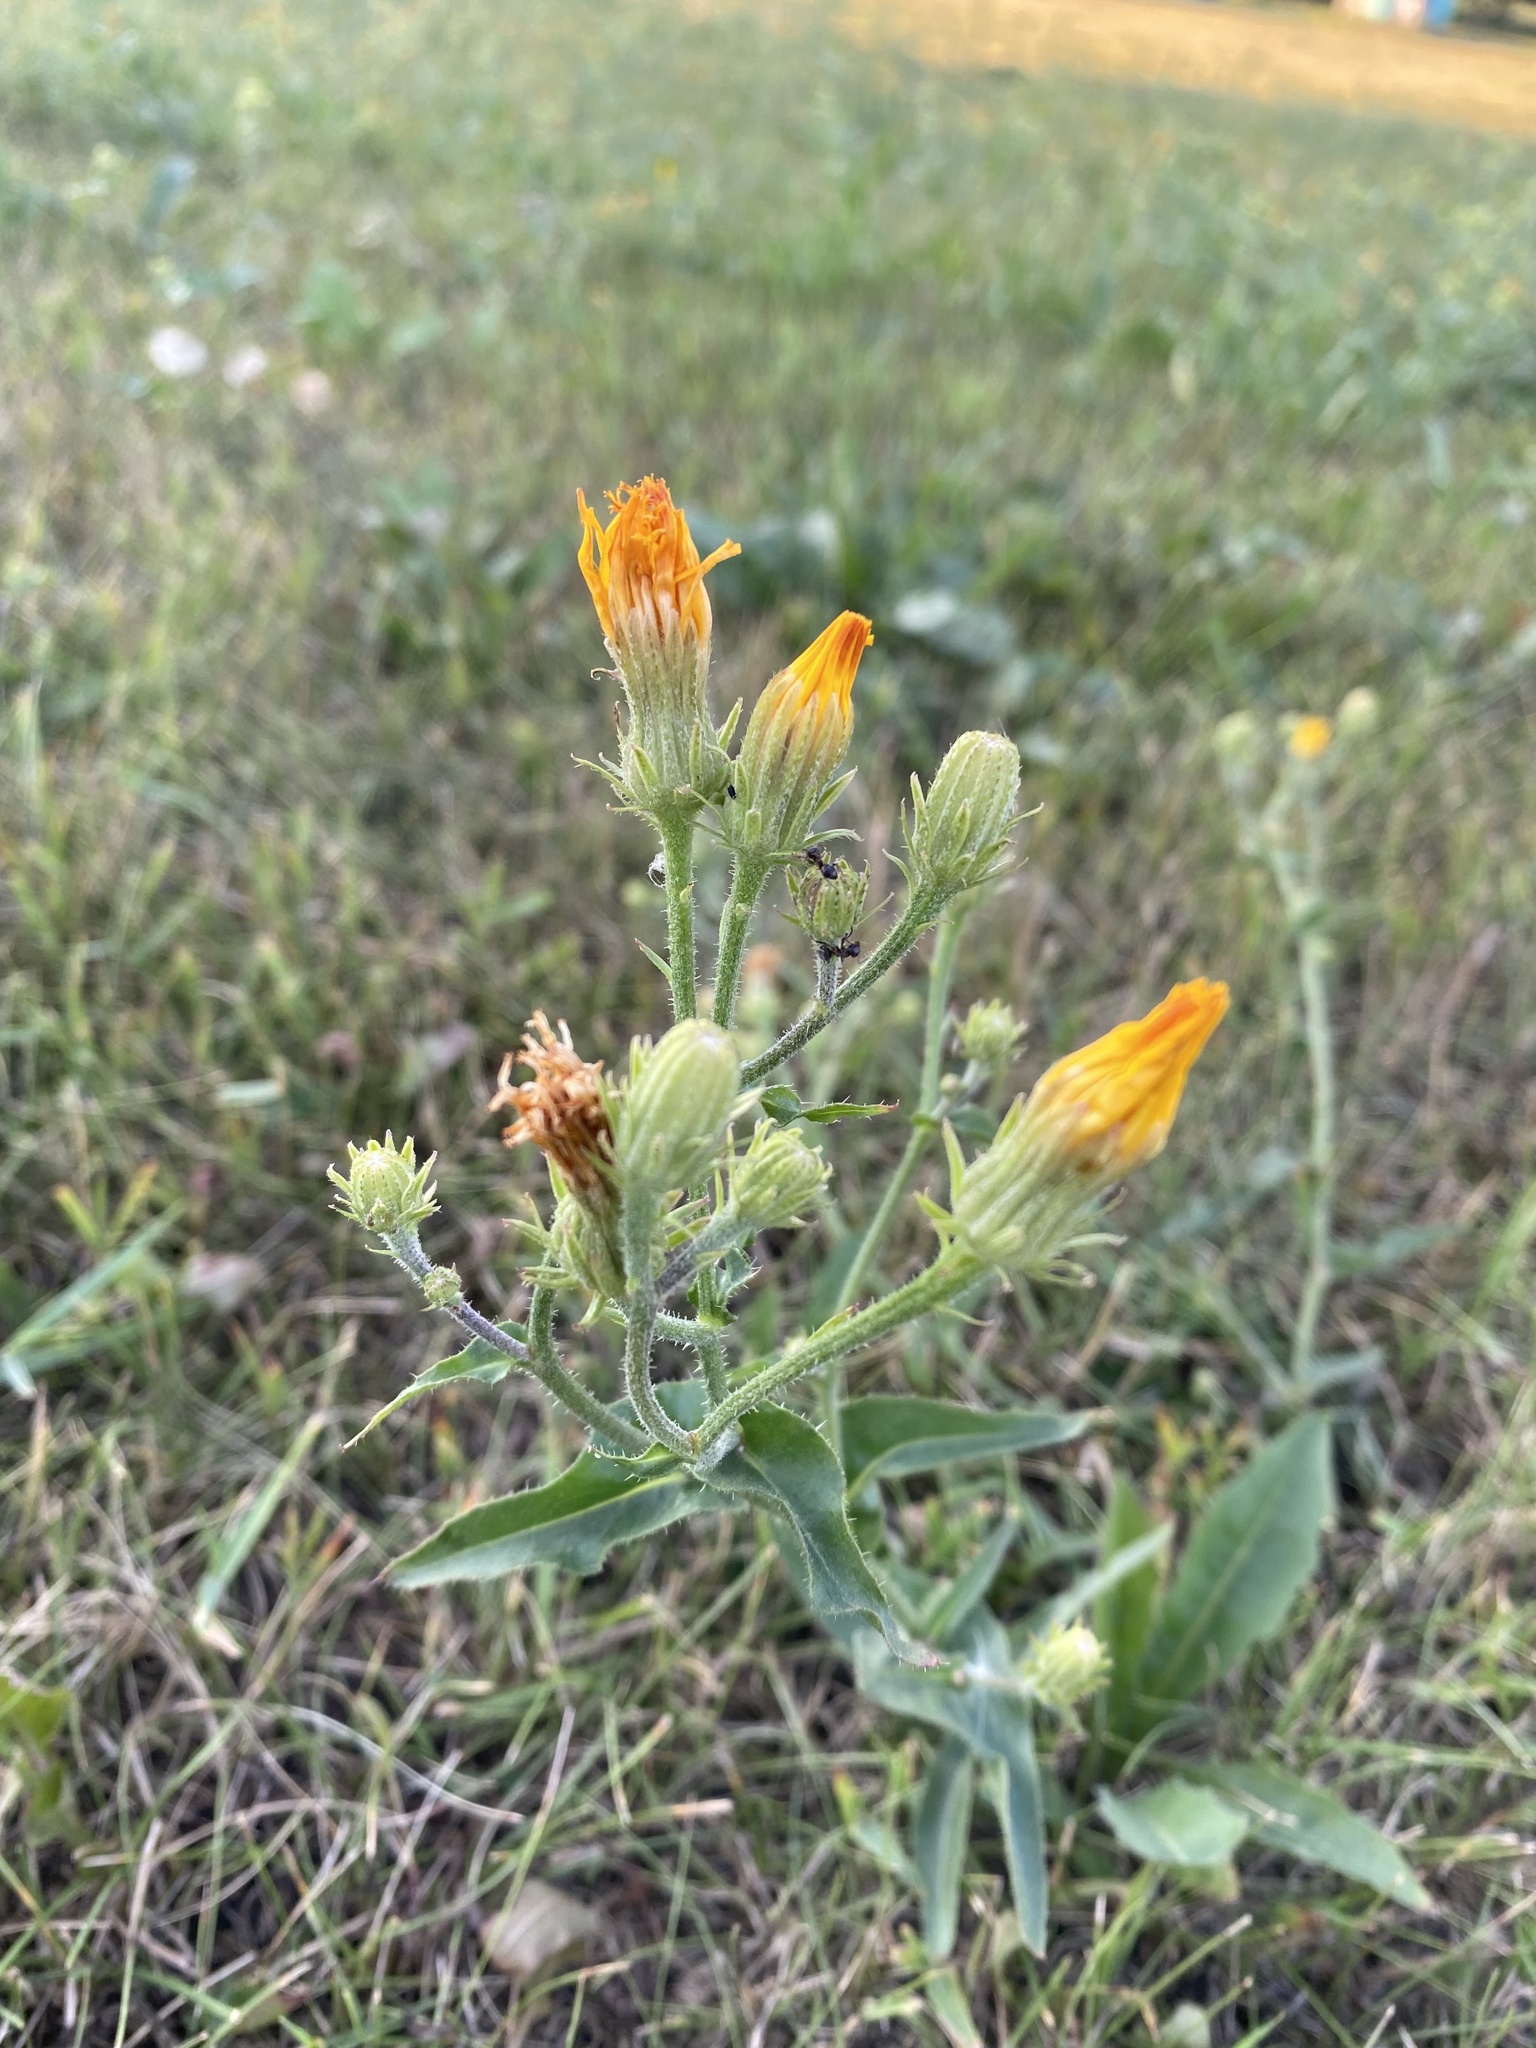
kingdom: Plantae
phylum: Tracheophyta
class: Magnoliopsida
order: Asterales
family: Asteraceae
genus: Picris
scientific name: Picris hieracioides
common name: Hawkweed oxtongue
